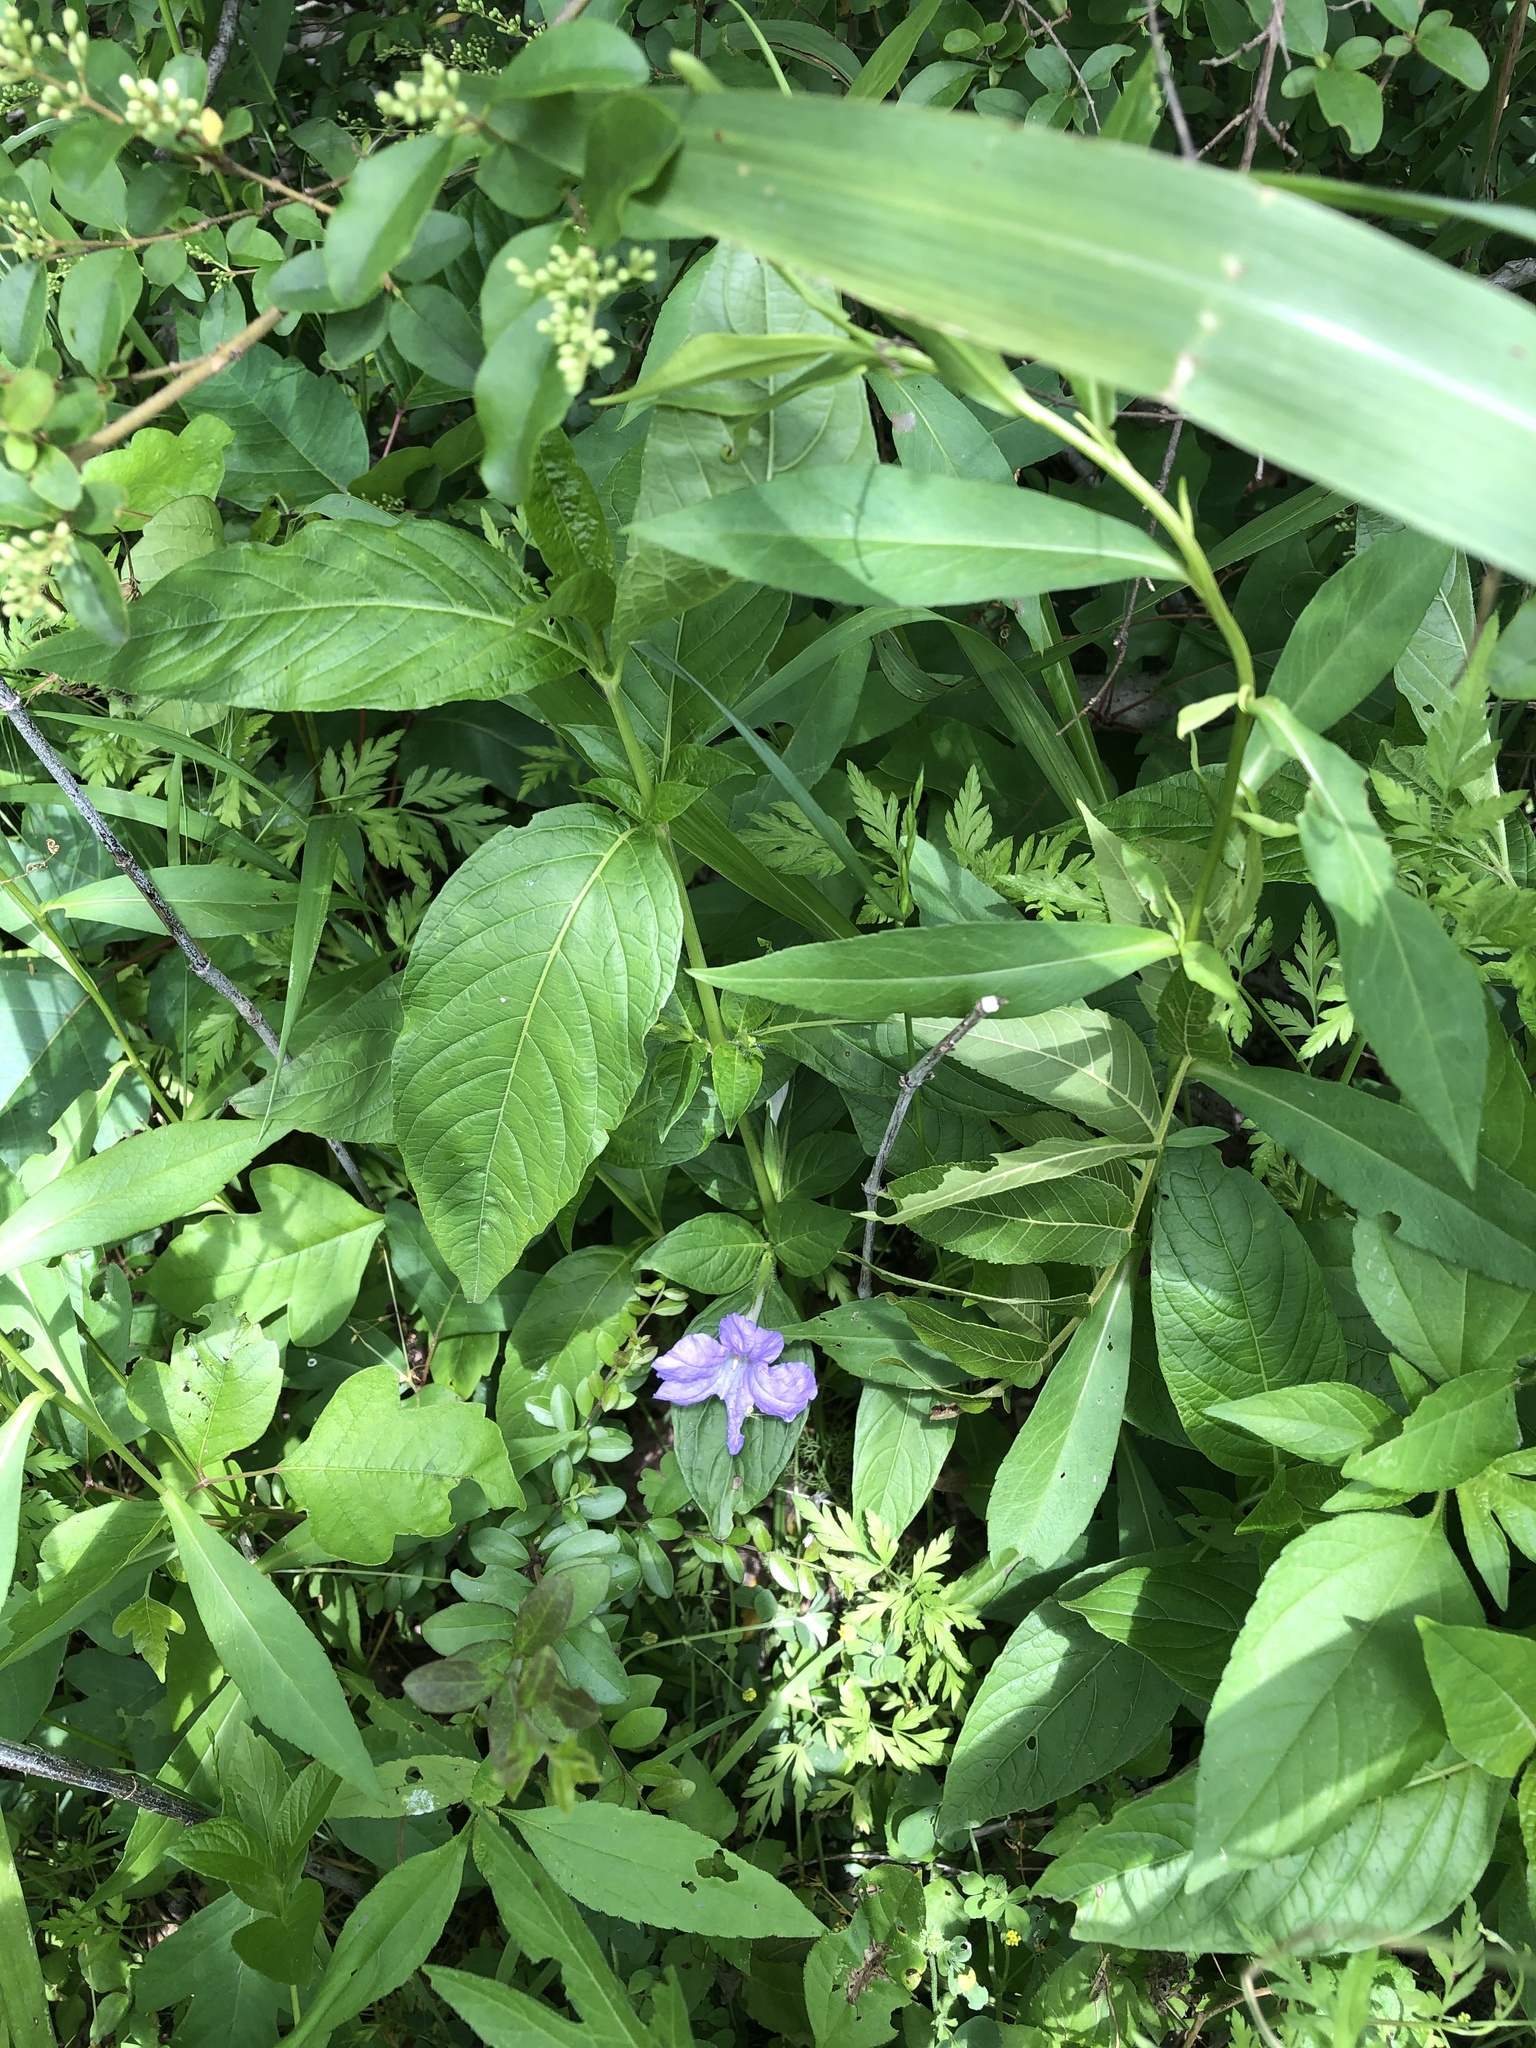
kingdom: Plantae
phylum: Tracheophyta
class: Magnoliopsida
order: Lamiales
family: Acanthaceae
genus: Ruellia
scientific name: Ruellia strepens
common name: Limestone wild petunia
